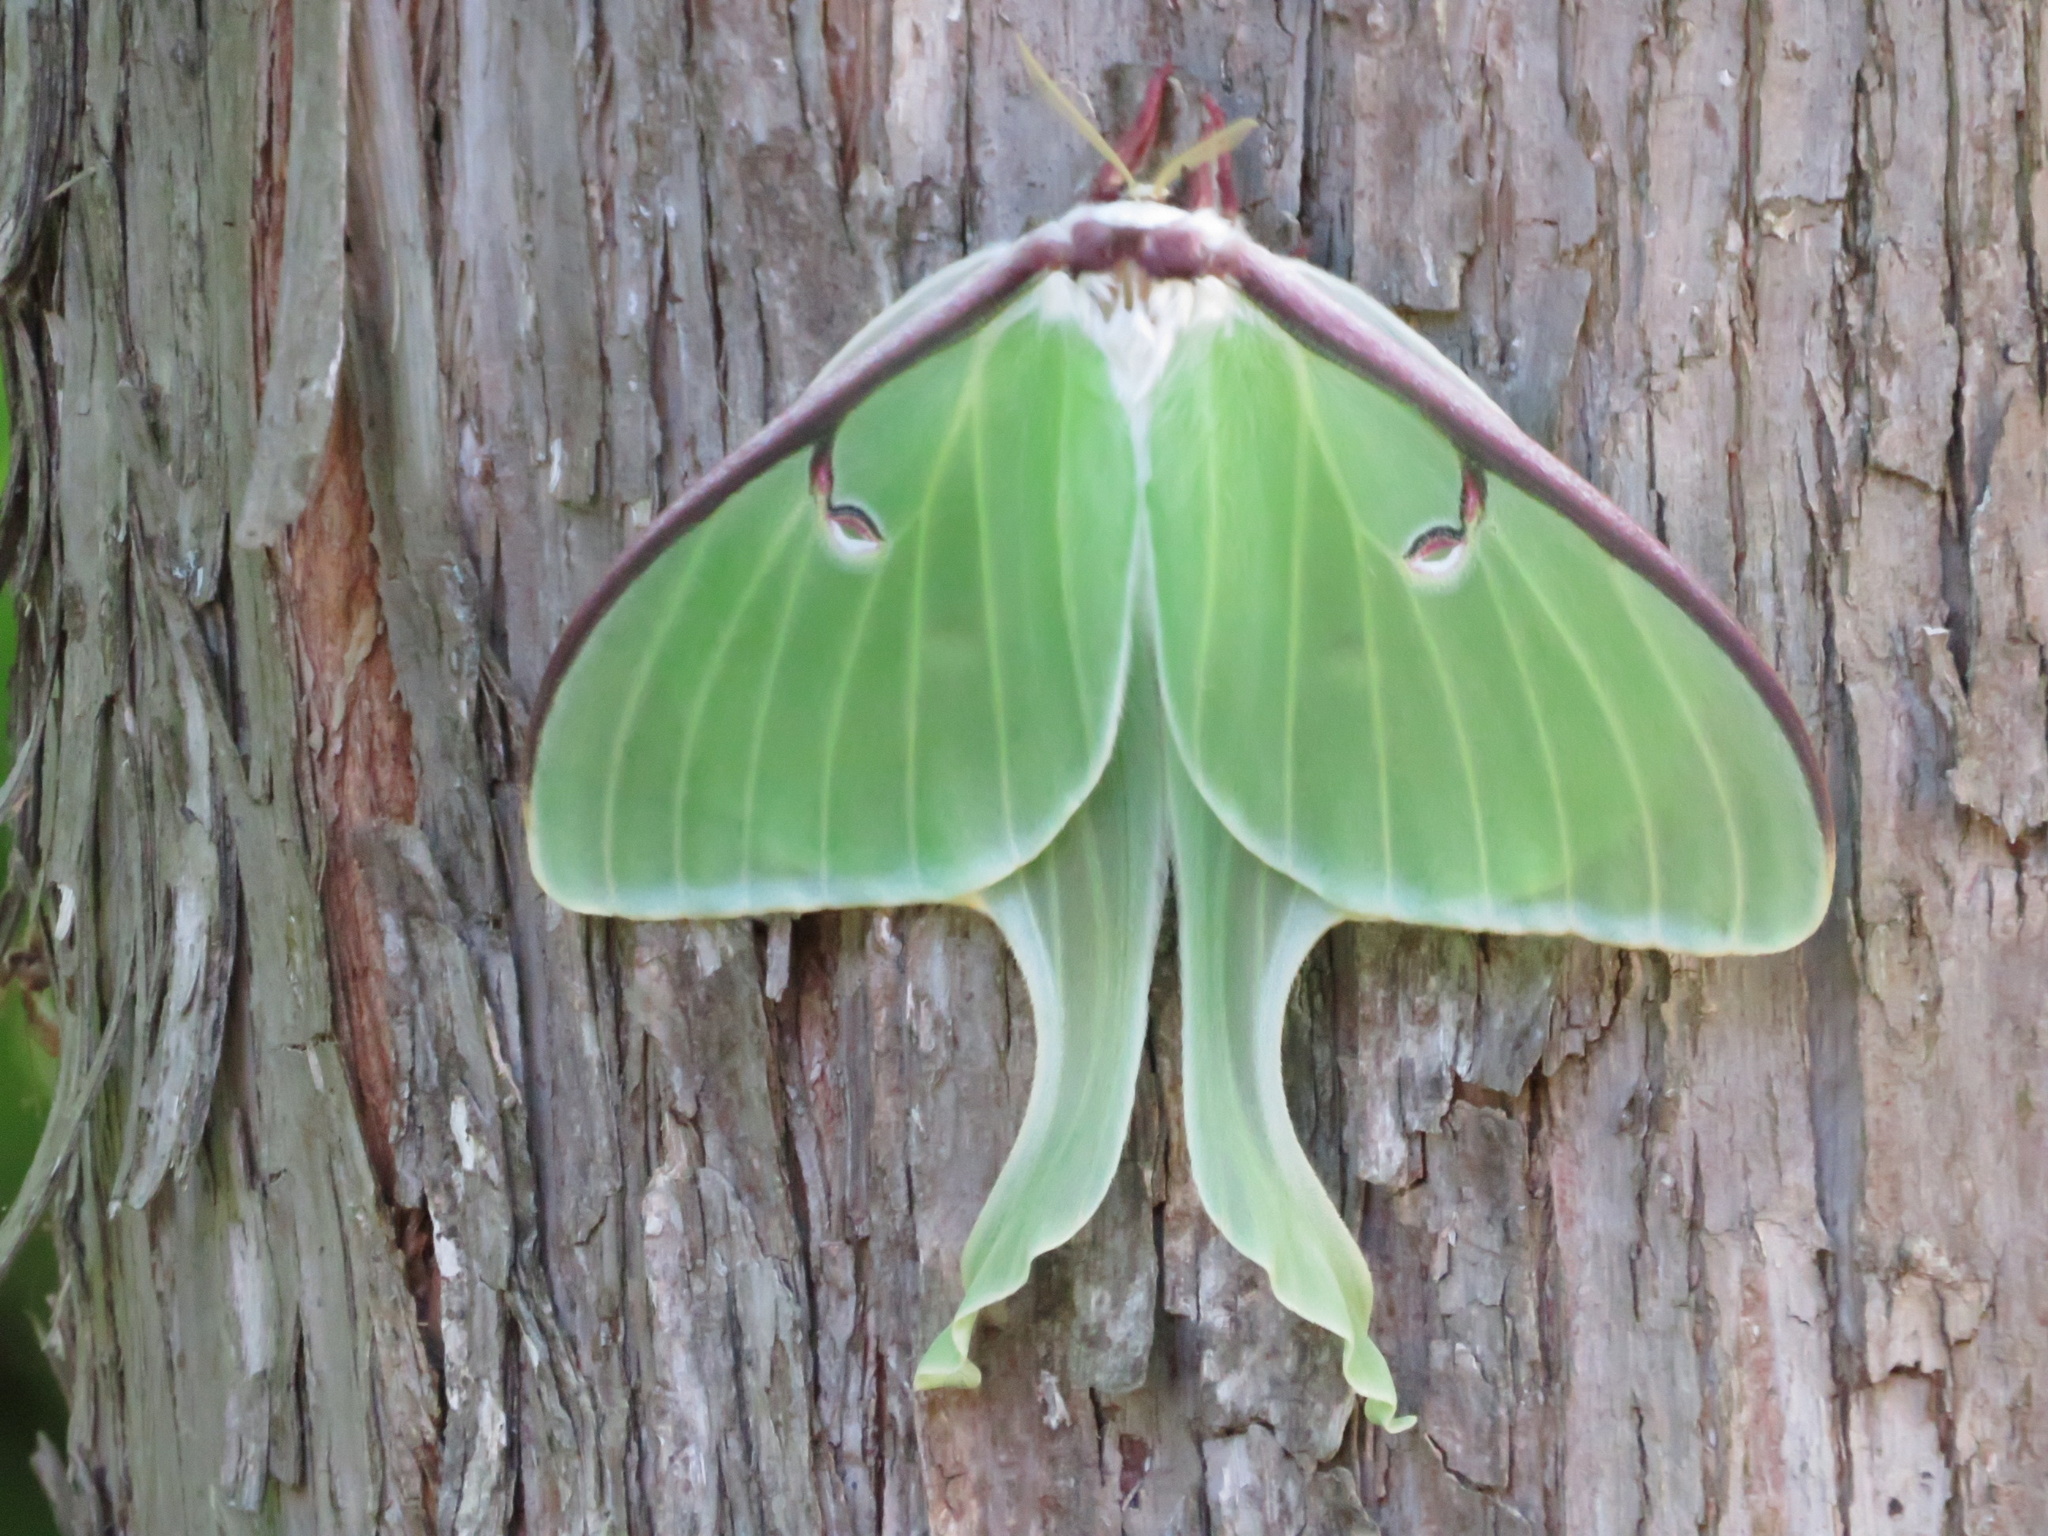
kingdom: Animalia
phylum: Arthropoda
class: Insecta
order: Lepidoptera
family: Saturniidae
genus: Actias
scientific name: Actias luna
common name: Luna moth
